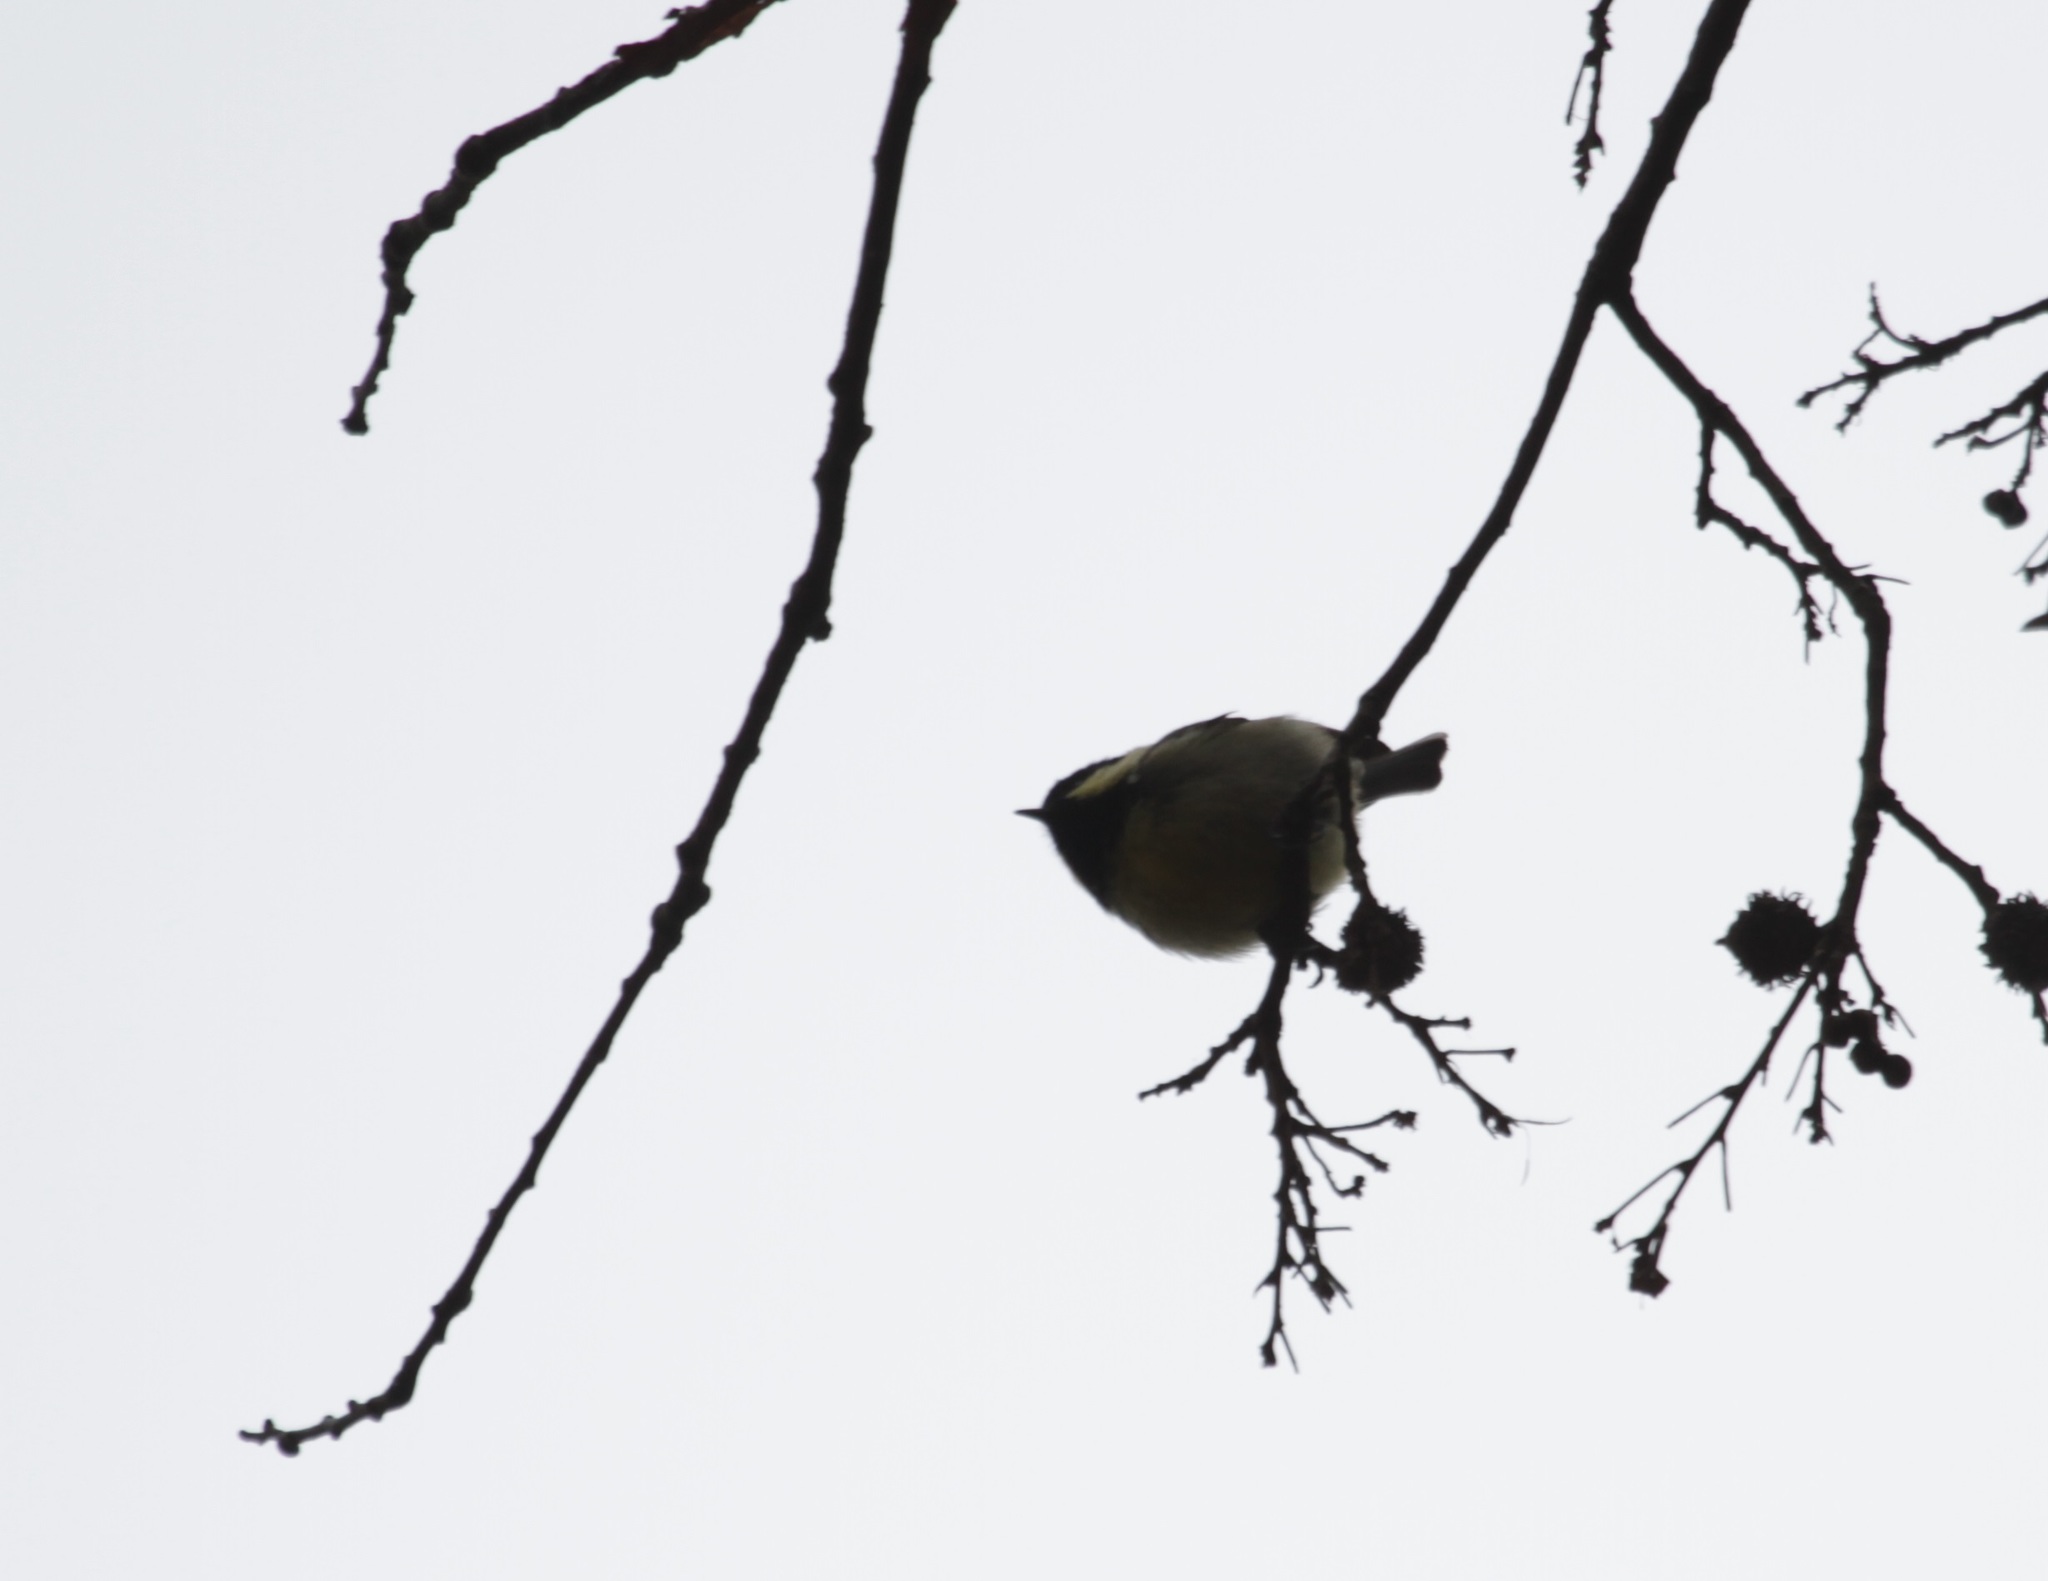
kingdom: Animalia
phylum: Chordata
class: Aves
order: Passeriformes
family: Paridae
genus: Periparus
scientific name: Periparus ater
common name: Coal tit
